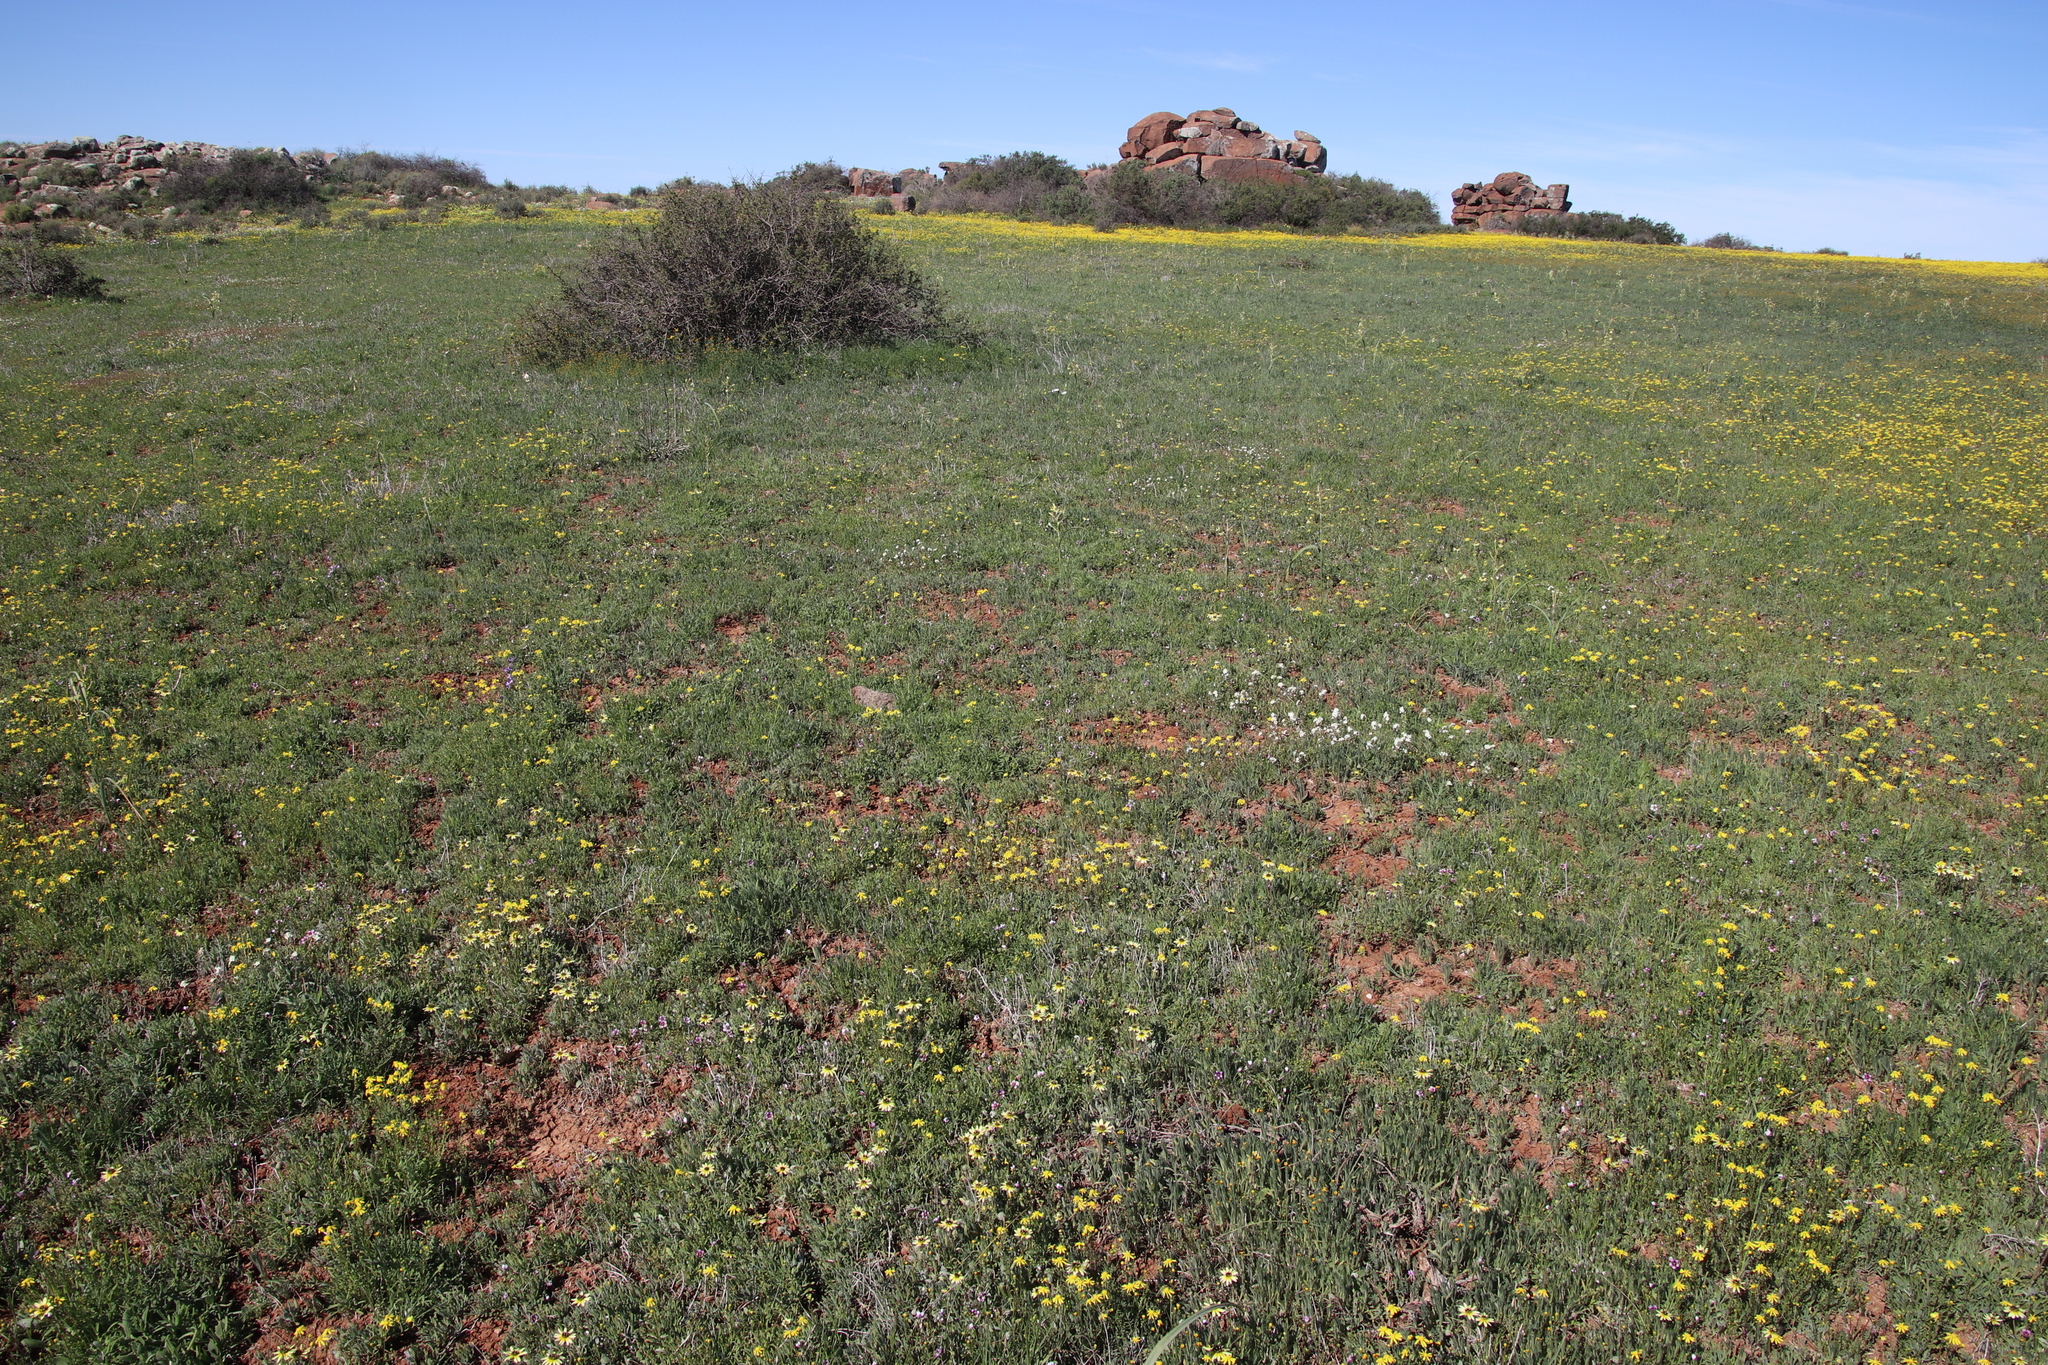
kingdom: Plantae
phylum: Tracheophyta
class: Magnoliopsida
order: Asterales
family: Asteraceae
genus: Arctotis
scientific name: Arctotis sulcocarpa
